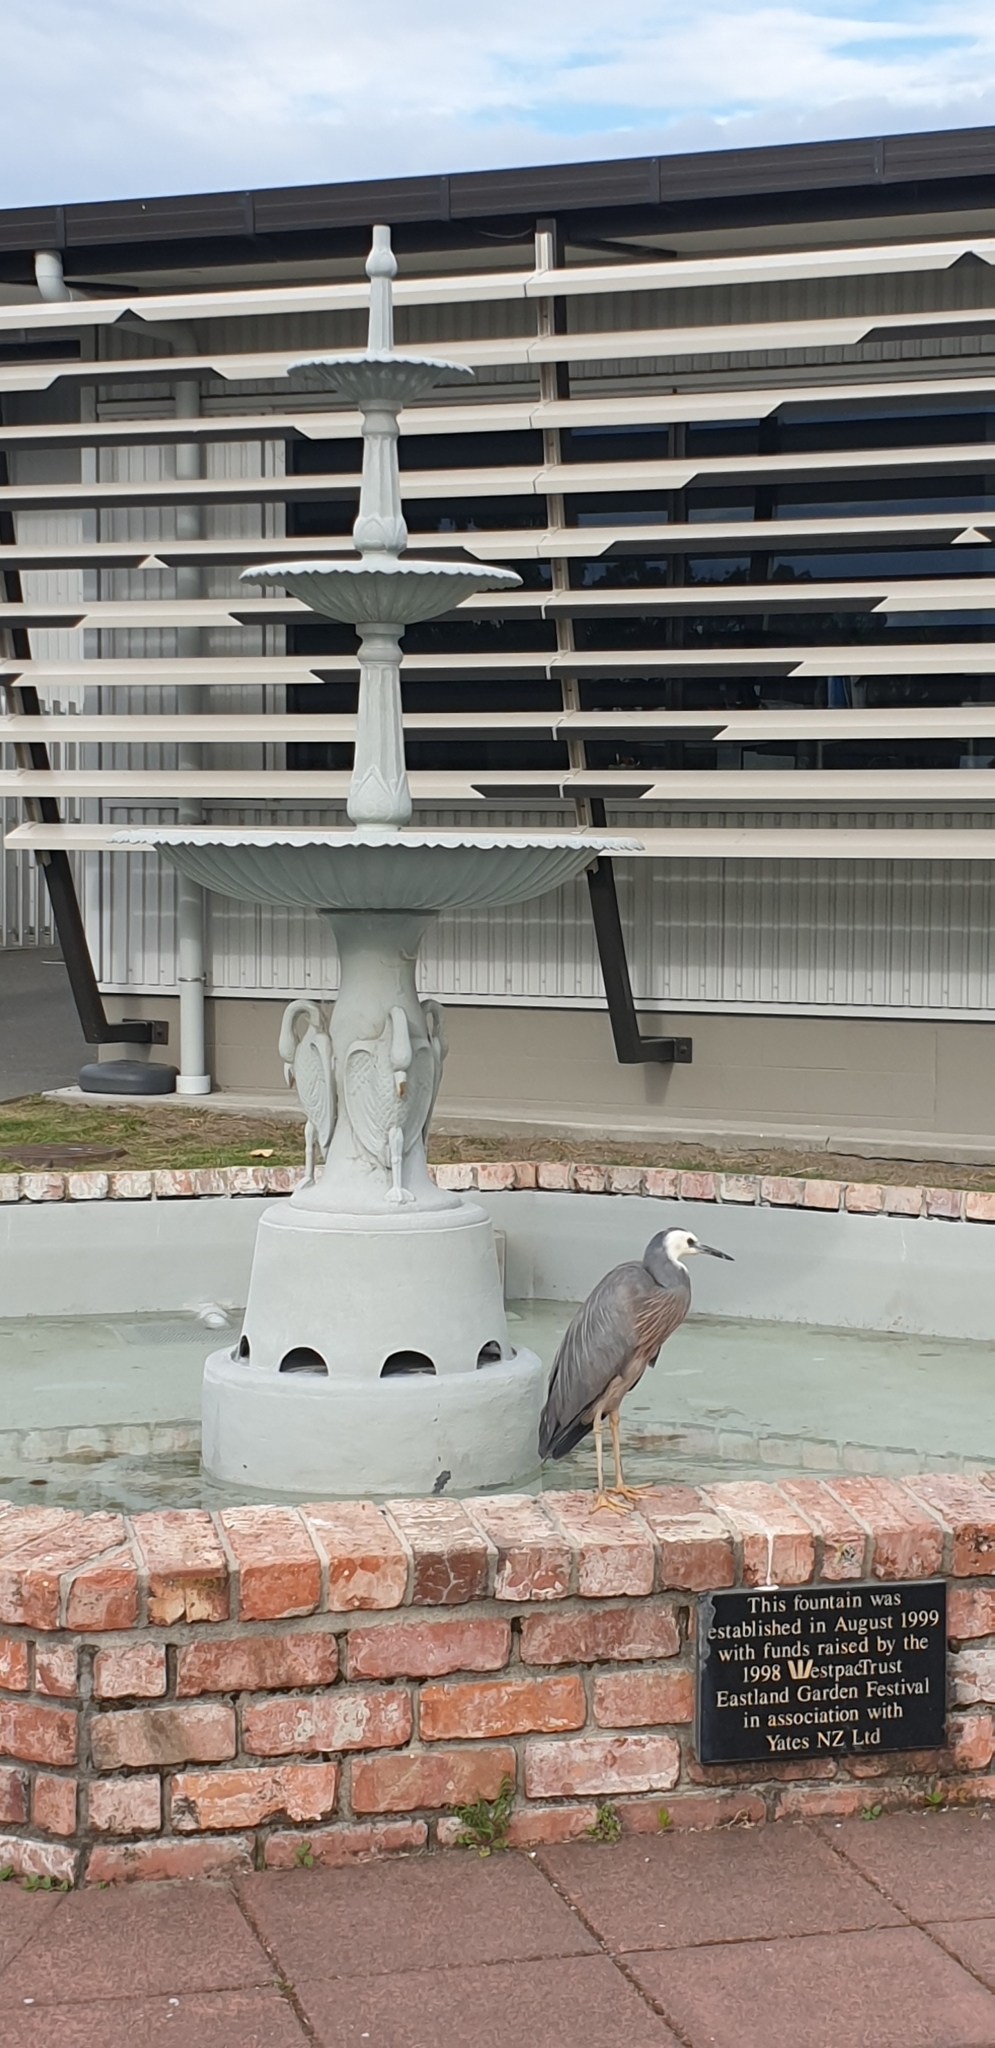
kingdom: Animalia
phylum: Chordata
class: Aves
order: Pelecaniformes
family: Ardeidae
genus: Egretta
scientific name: Egretta novaehollandiae
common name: White-faced heron
